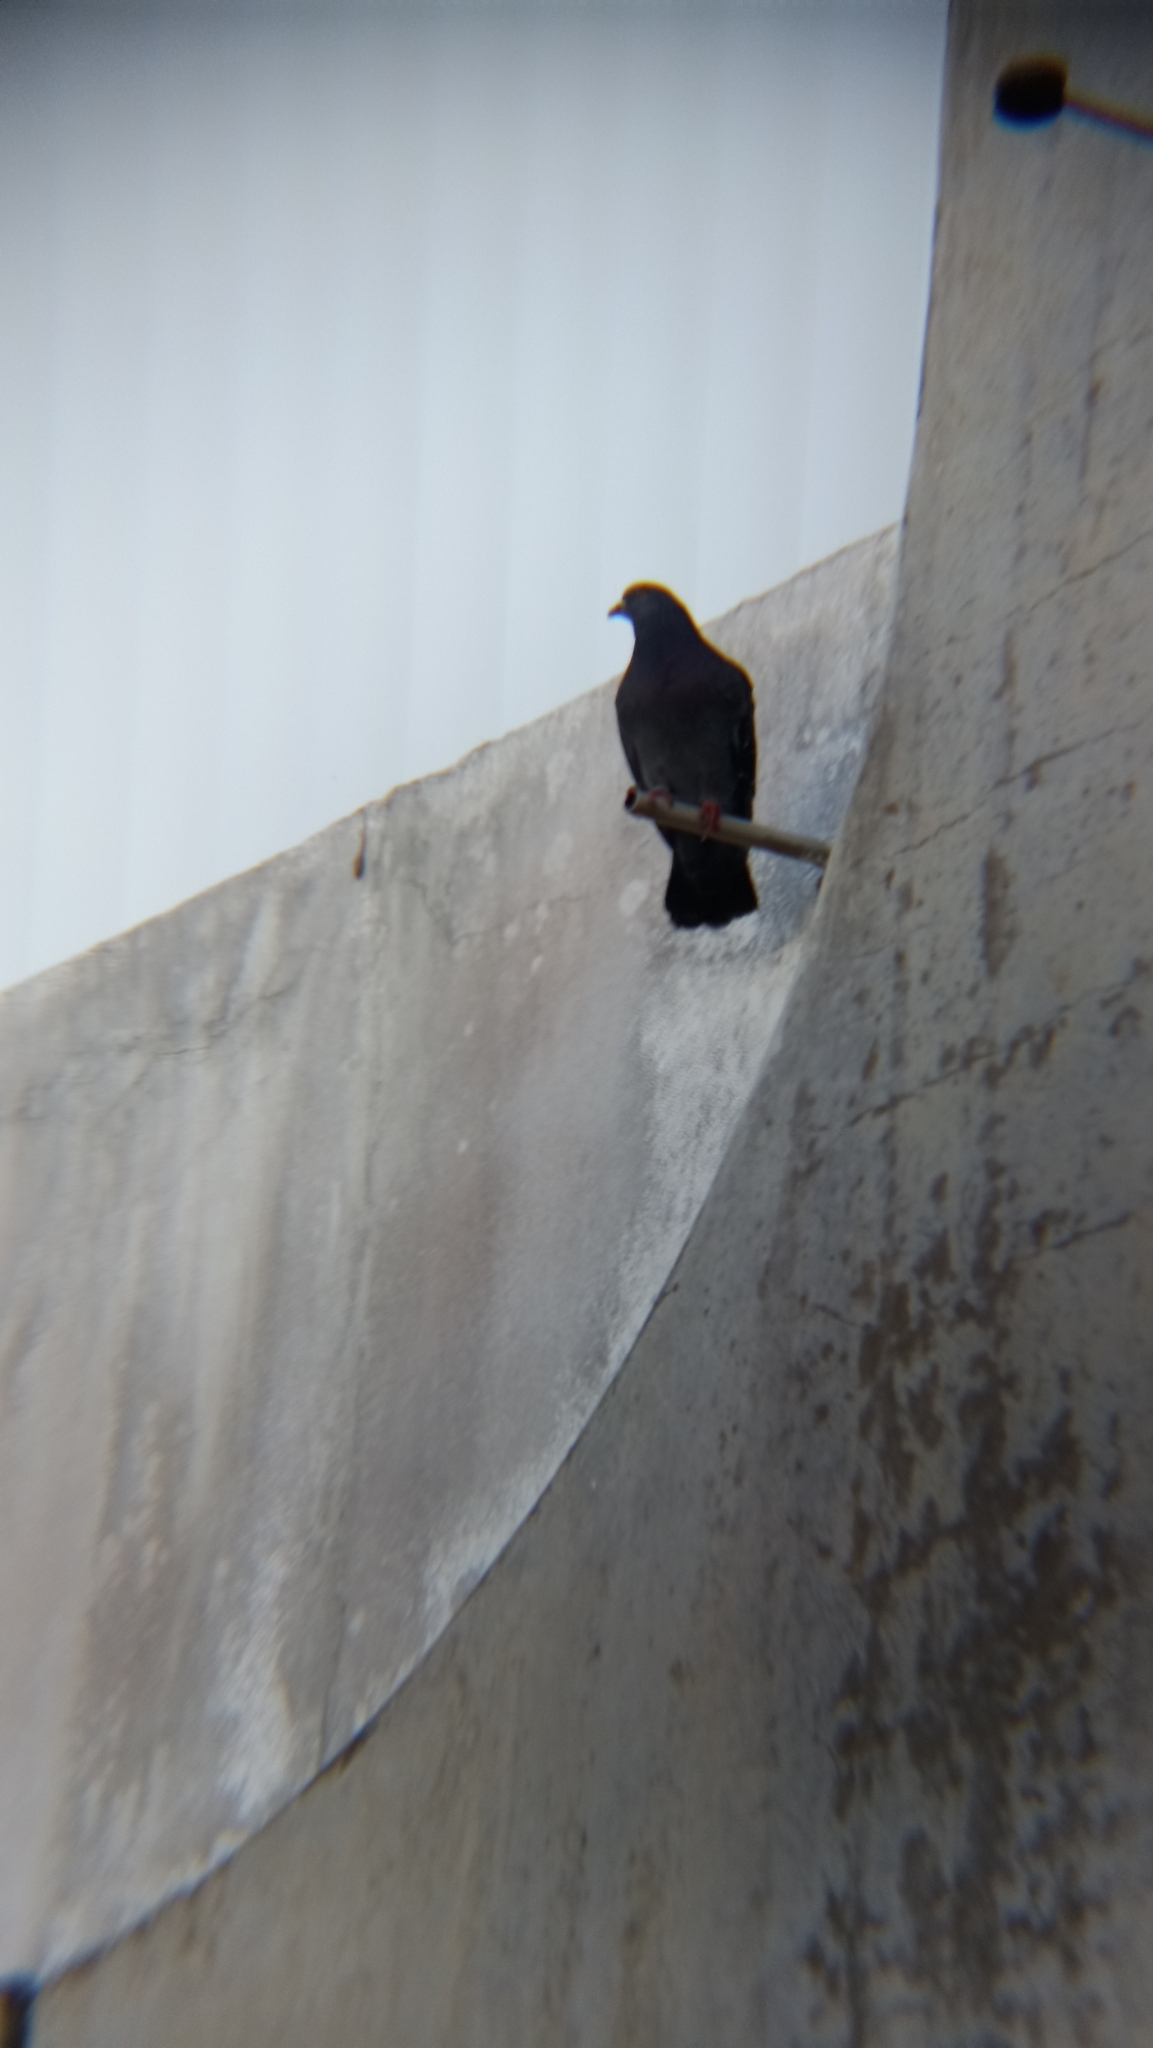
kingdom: Animalia
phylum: Chordata
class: Aves
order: Columbiformes
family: Columbidae
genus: Columba
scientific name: Columba livia
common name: Rock pigeon
